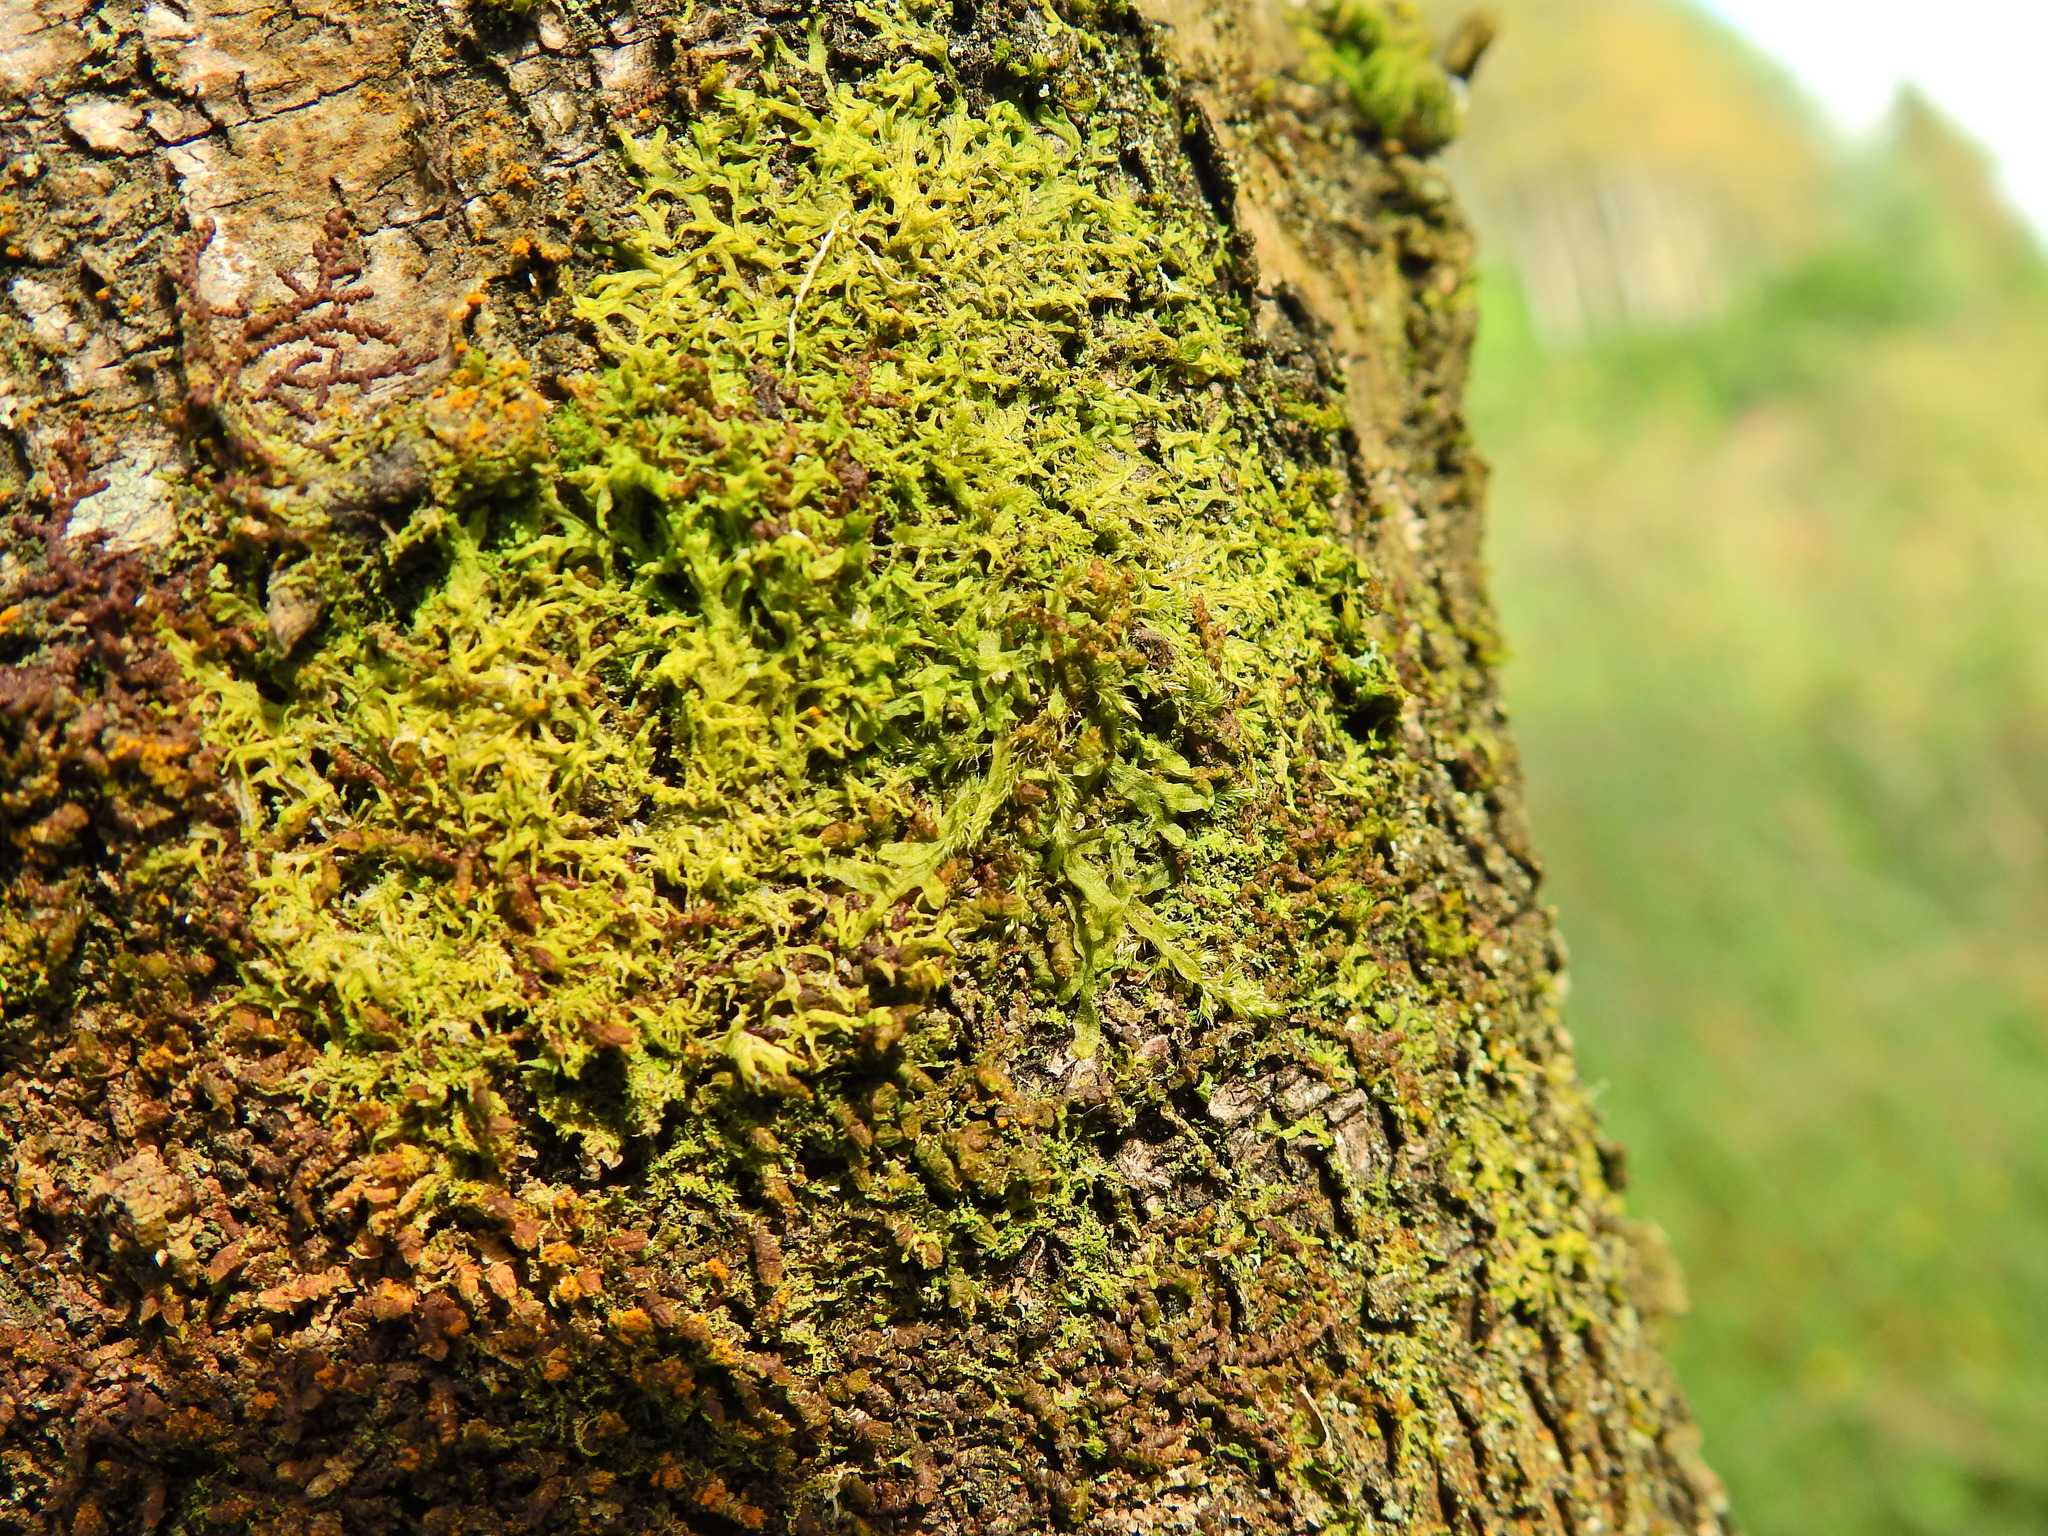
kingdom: Plantae
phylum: Marchantiophyta
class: Jungermanniopsida
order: Metzgeriales
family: Metzgeriaceae
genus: Metzgeria
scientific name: Metzgeria furcata
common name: Forked veilwort
